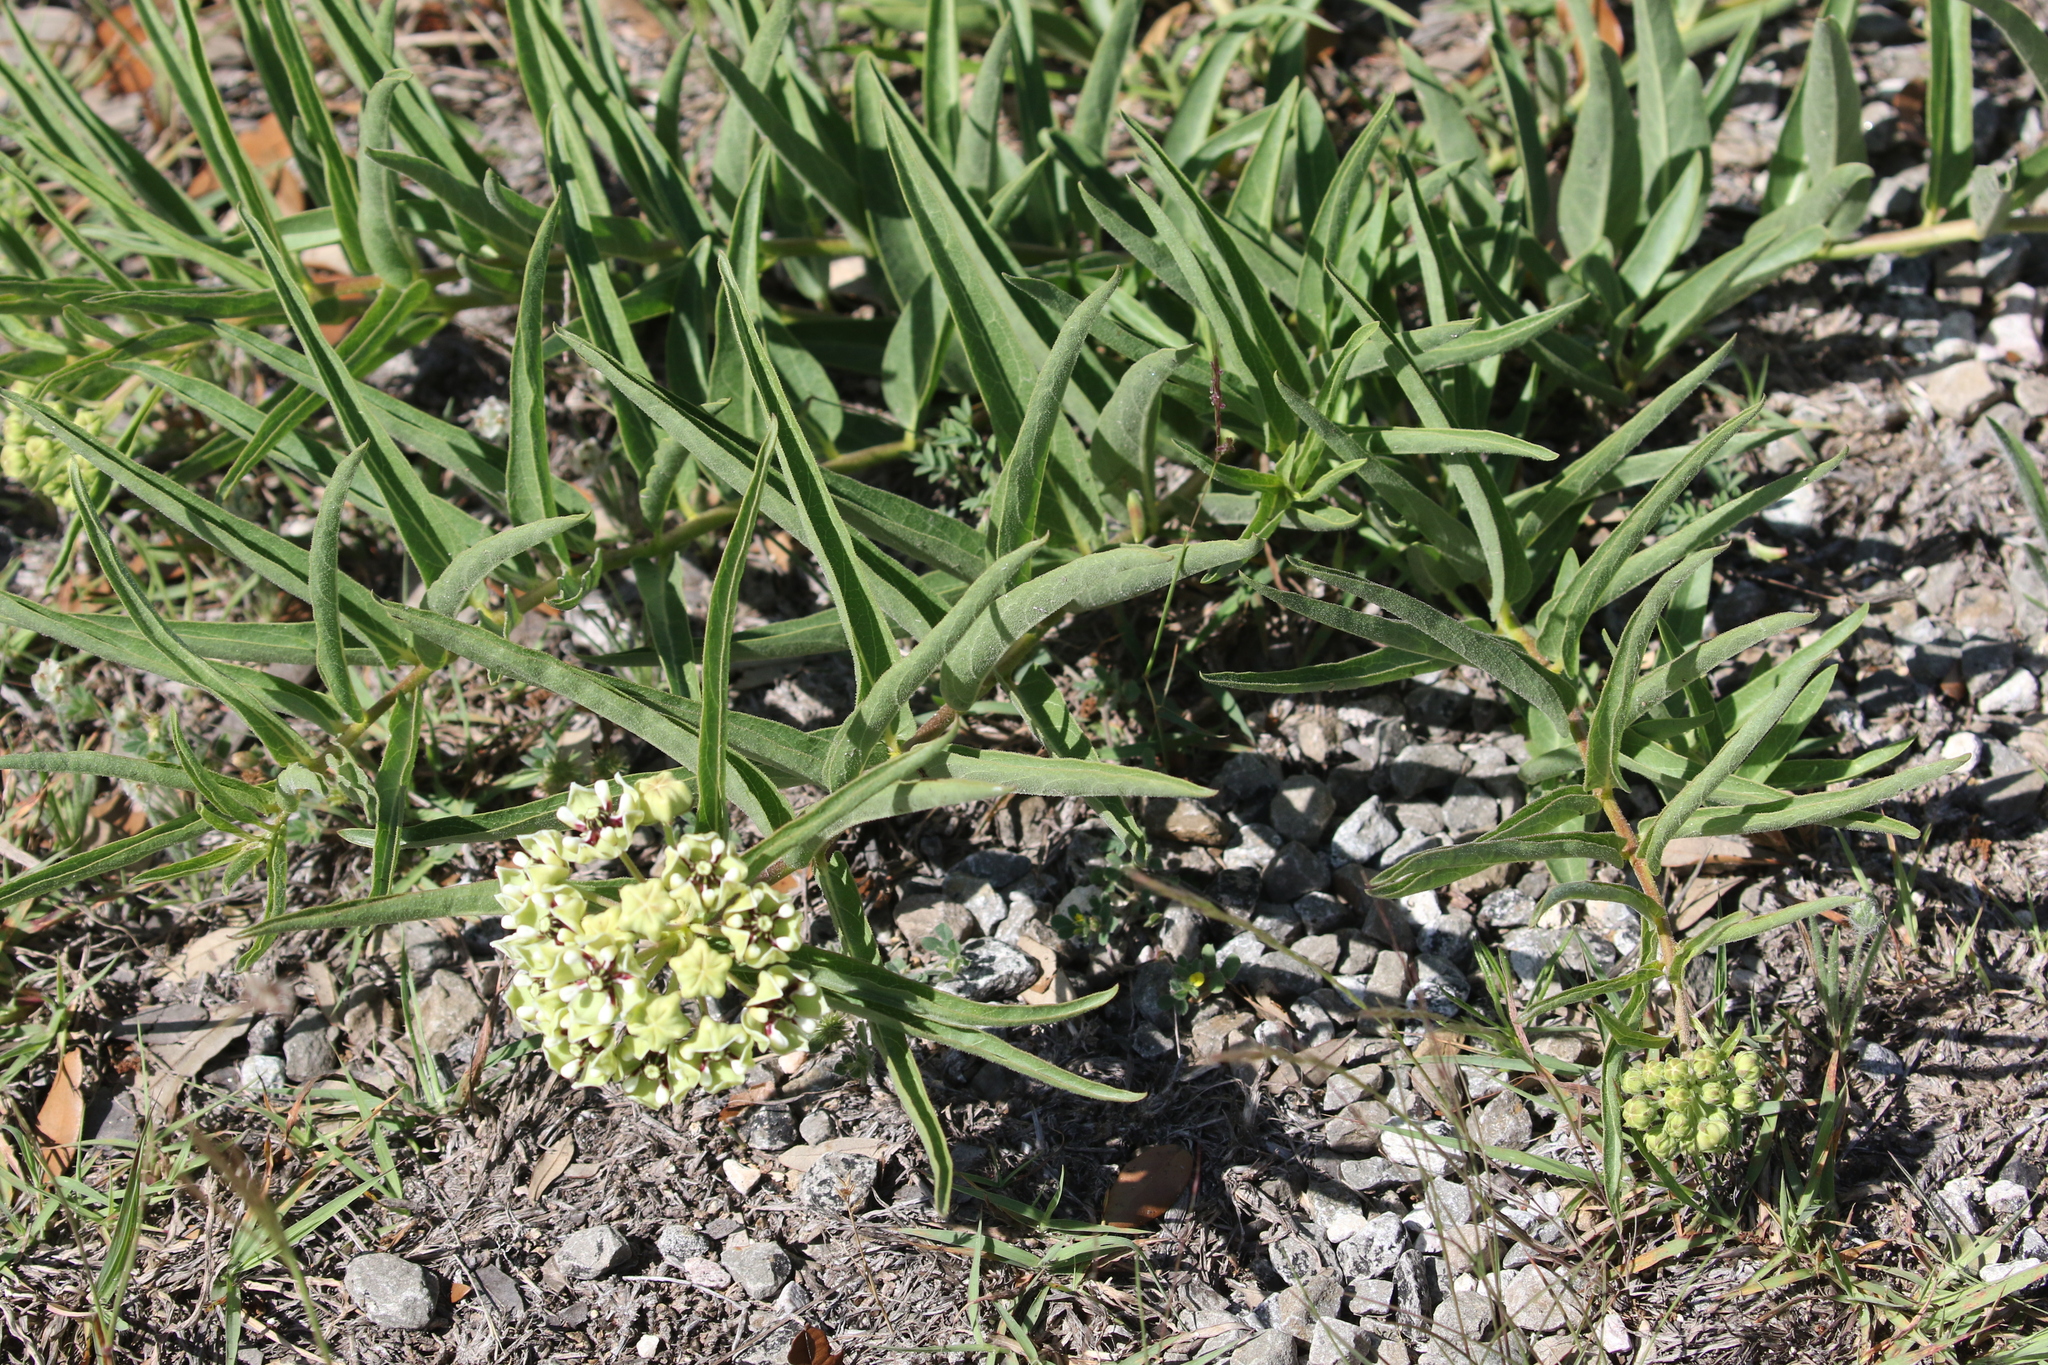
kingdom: Plantae
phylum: Tracheophyta
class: Magnoliopsida
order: Gentianales
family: Apocynaceae
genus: Asclepias
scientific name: Asclepias asperula
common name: Antelope horns
